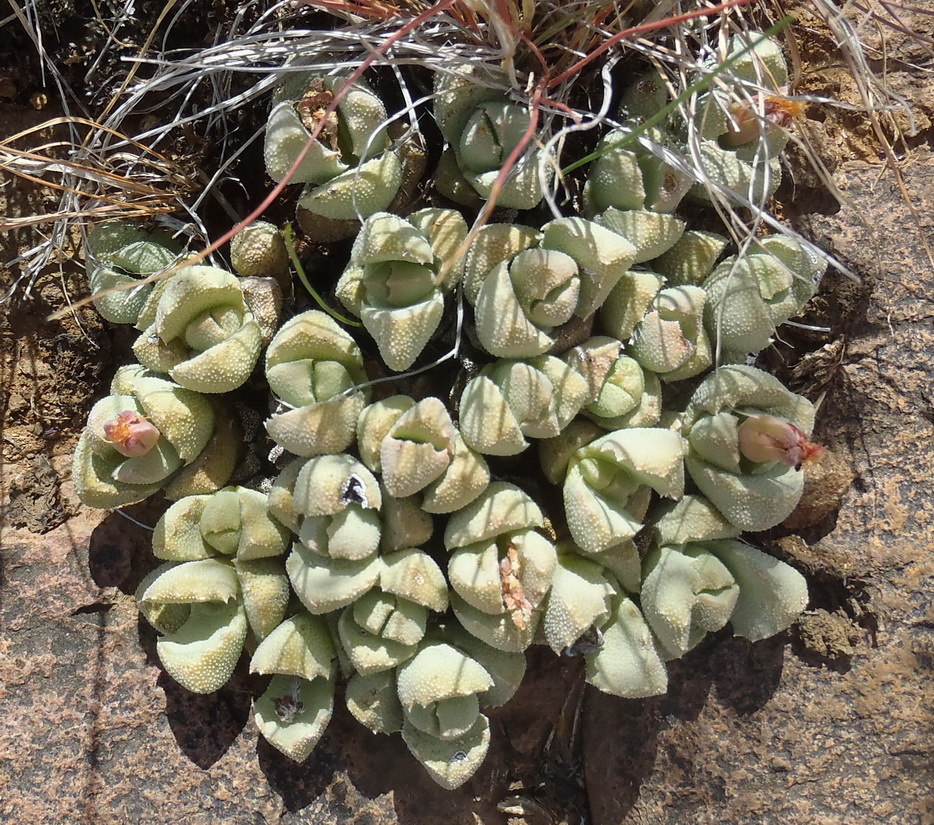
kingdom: Plantae
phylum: Tracheophyta
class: Magnoliopsida
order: Caryophyllales
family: Aizoaceae
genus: Stomatium
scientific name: Stomatium bolusiae
